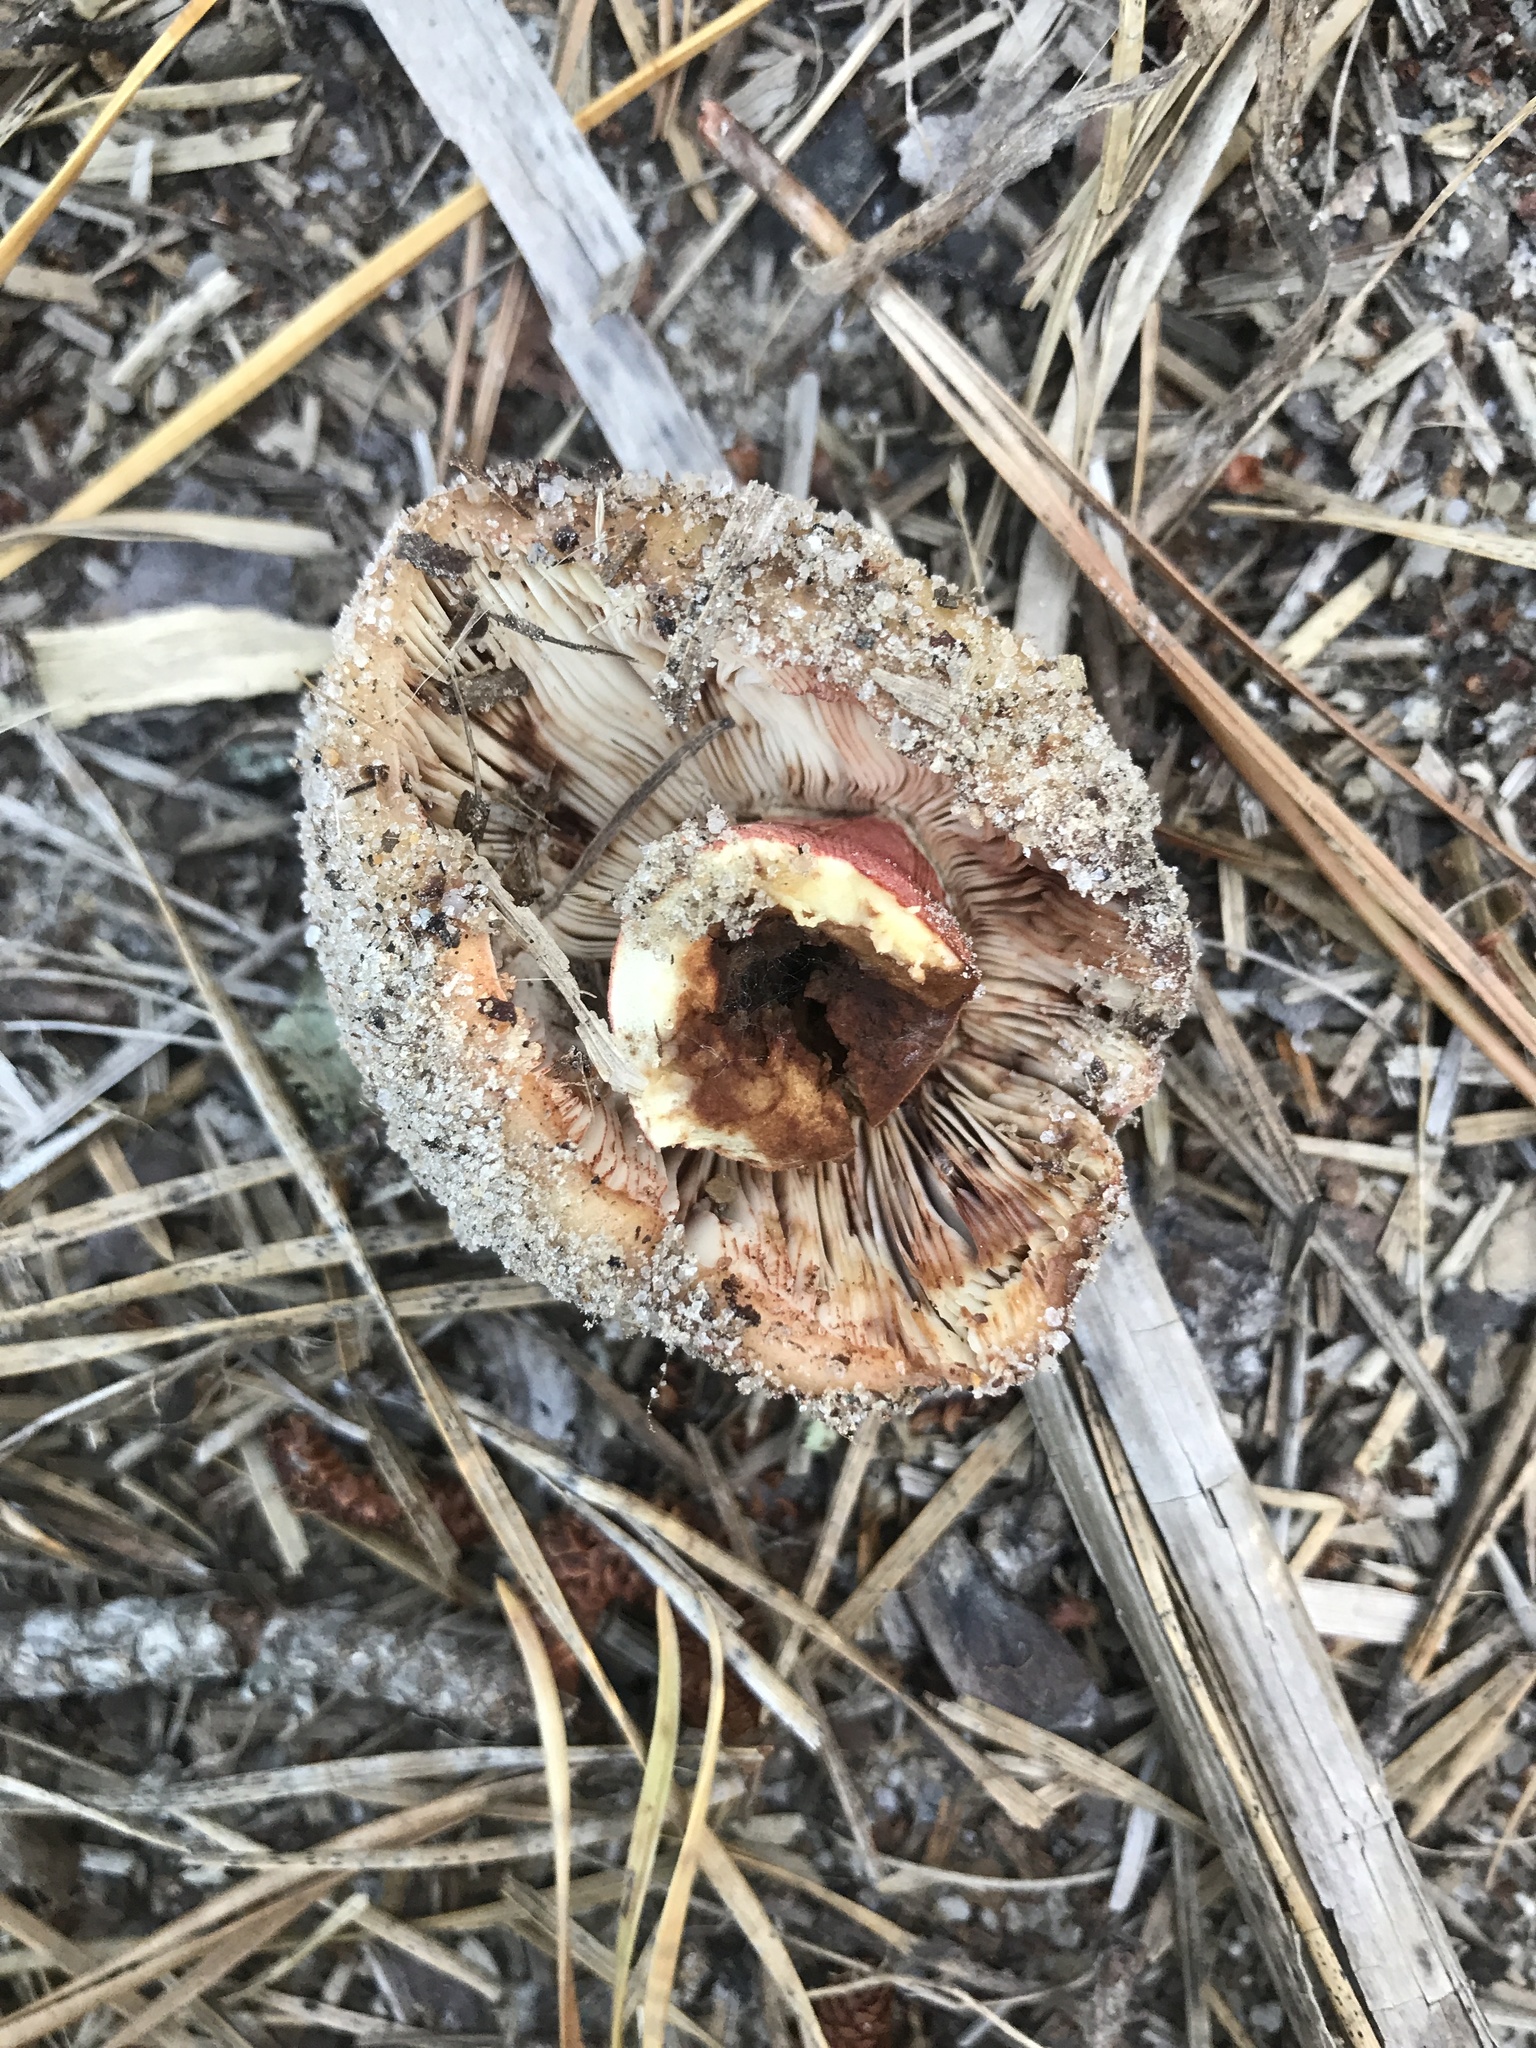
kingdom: Fungi
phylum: Basidiomycota
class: Agaricomycetes
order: Russulales
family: Russulaceae
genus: Russula
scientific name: Russula ventricosipes
